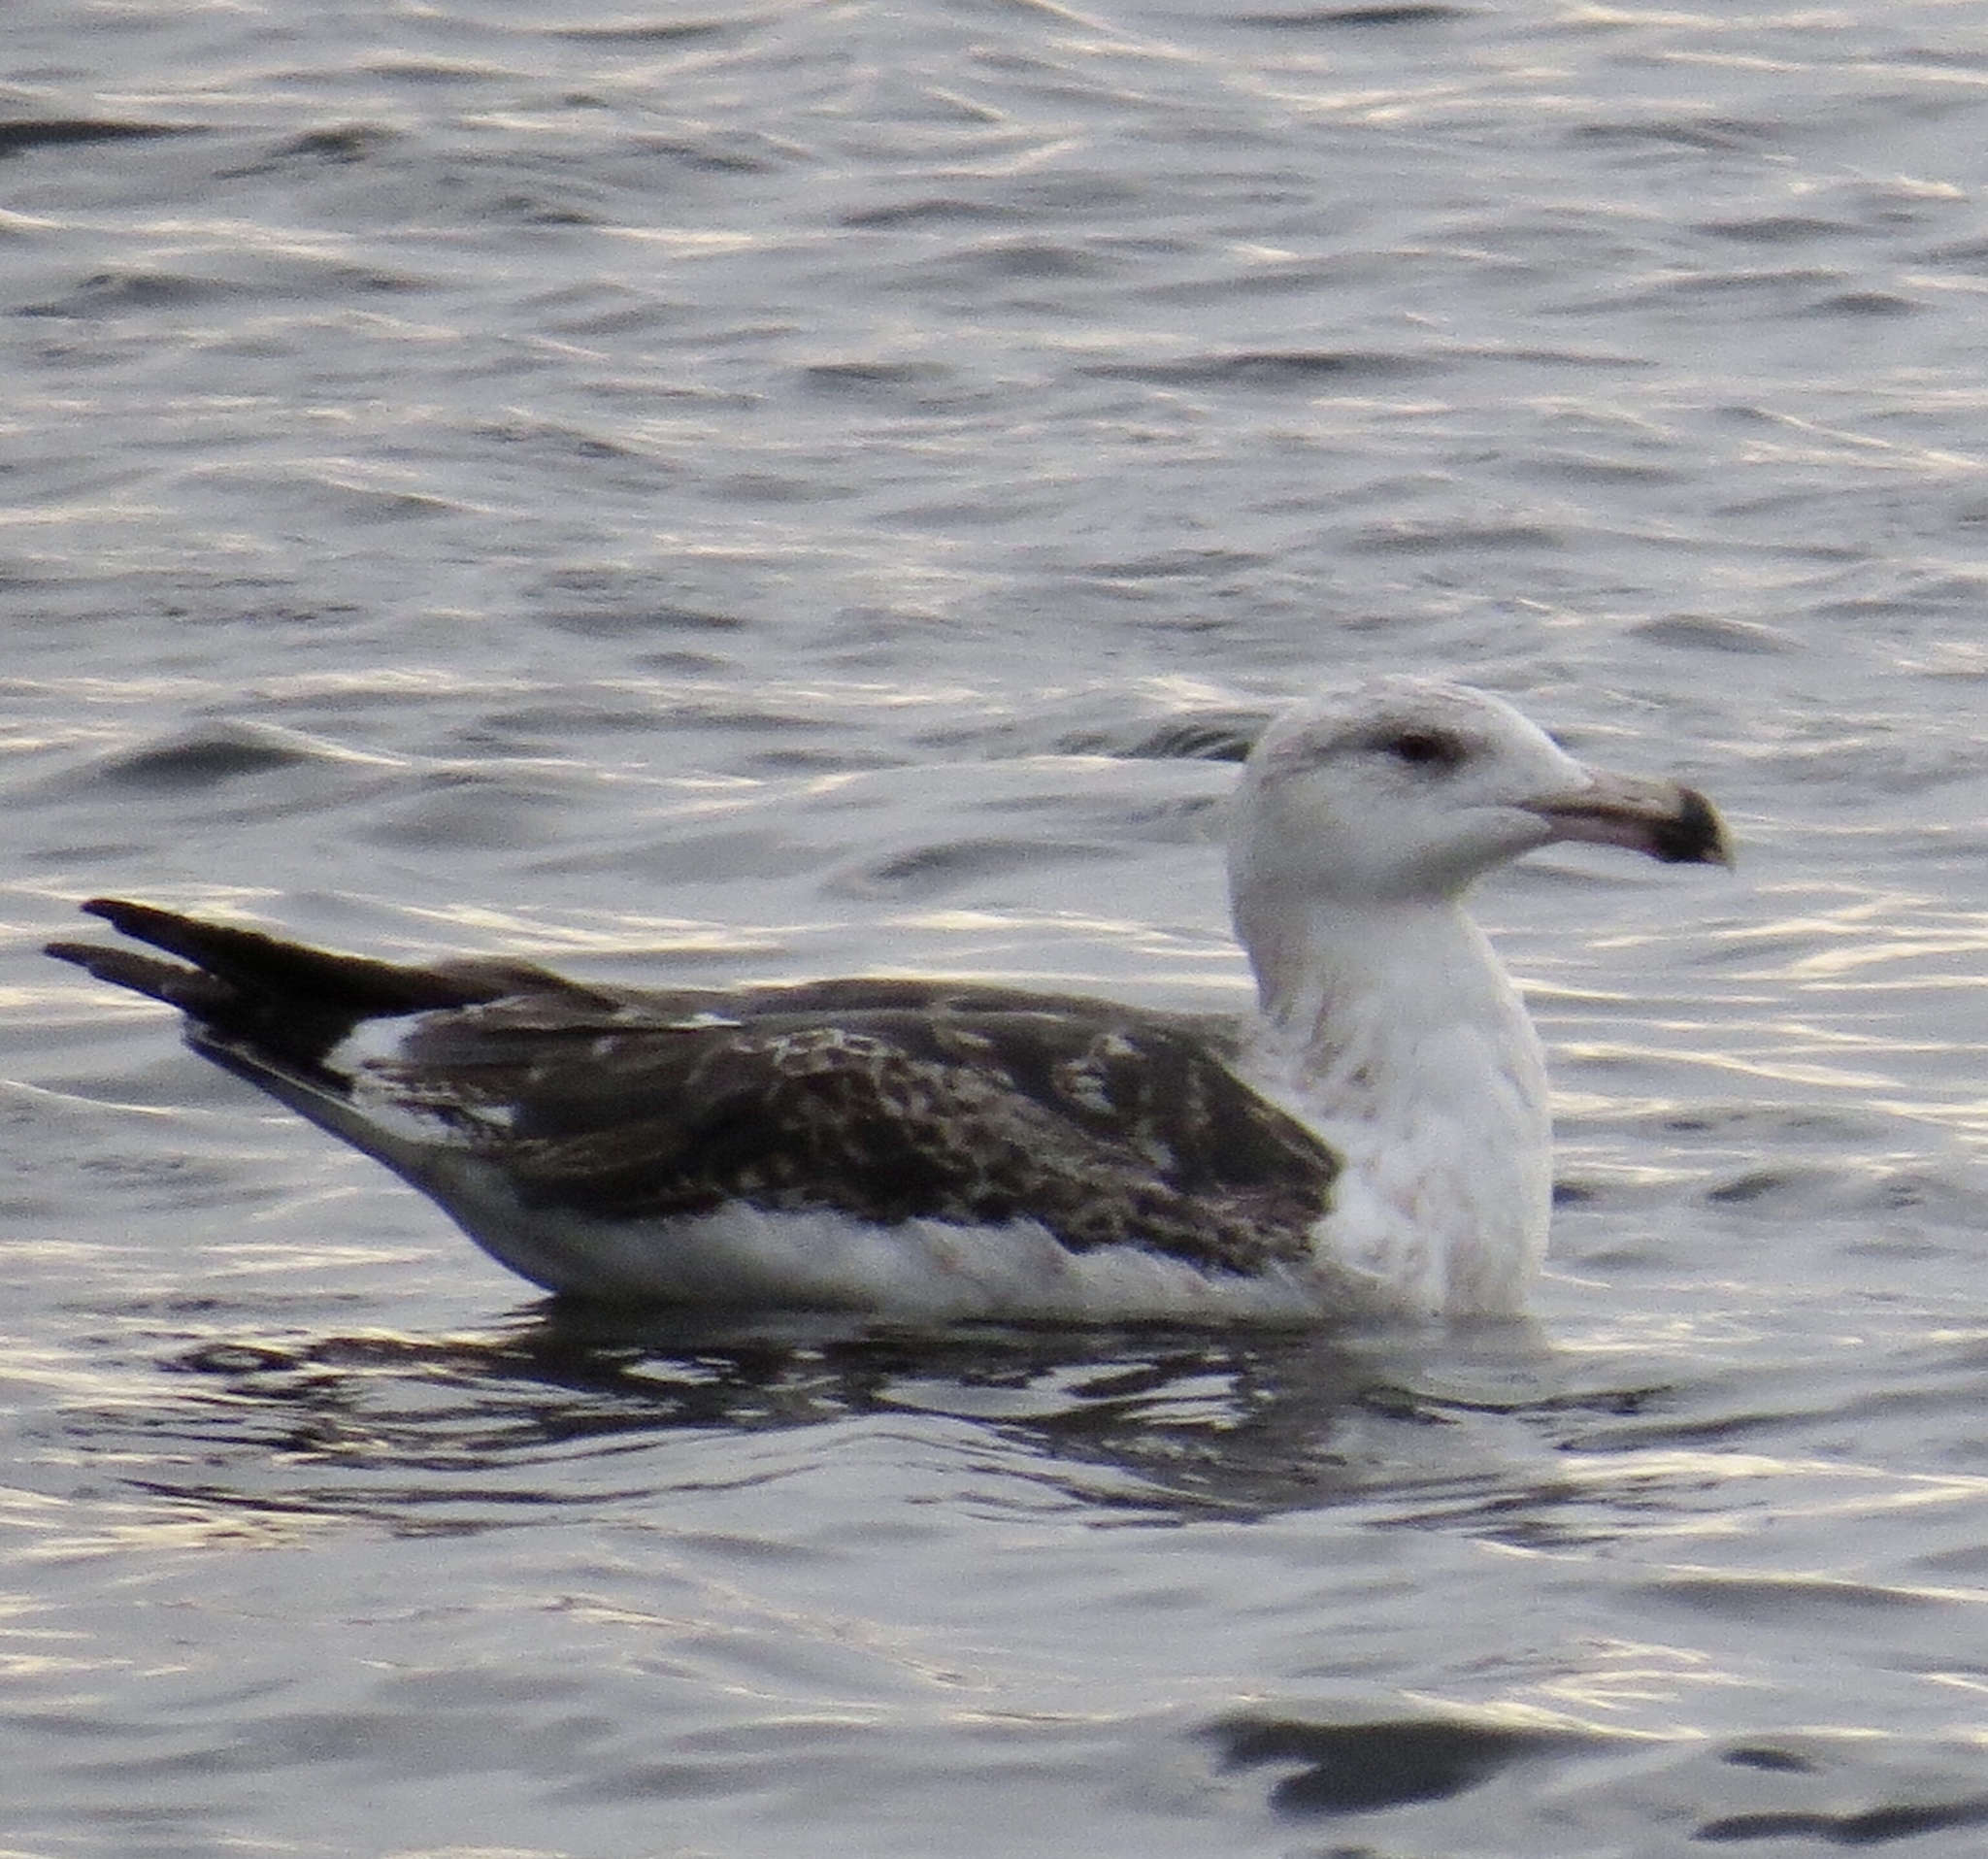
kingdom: Animalia
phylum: Chordata
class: Aves
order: Charadriiformes
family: Laridae
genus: Larus
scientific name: Larus marinus
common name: Great black-backed gull
